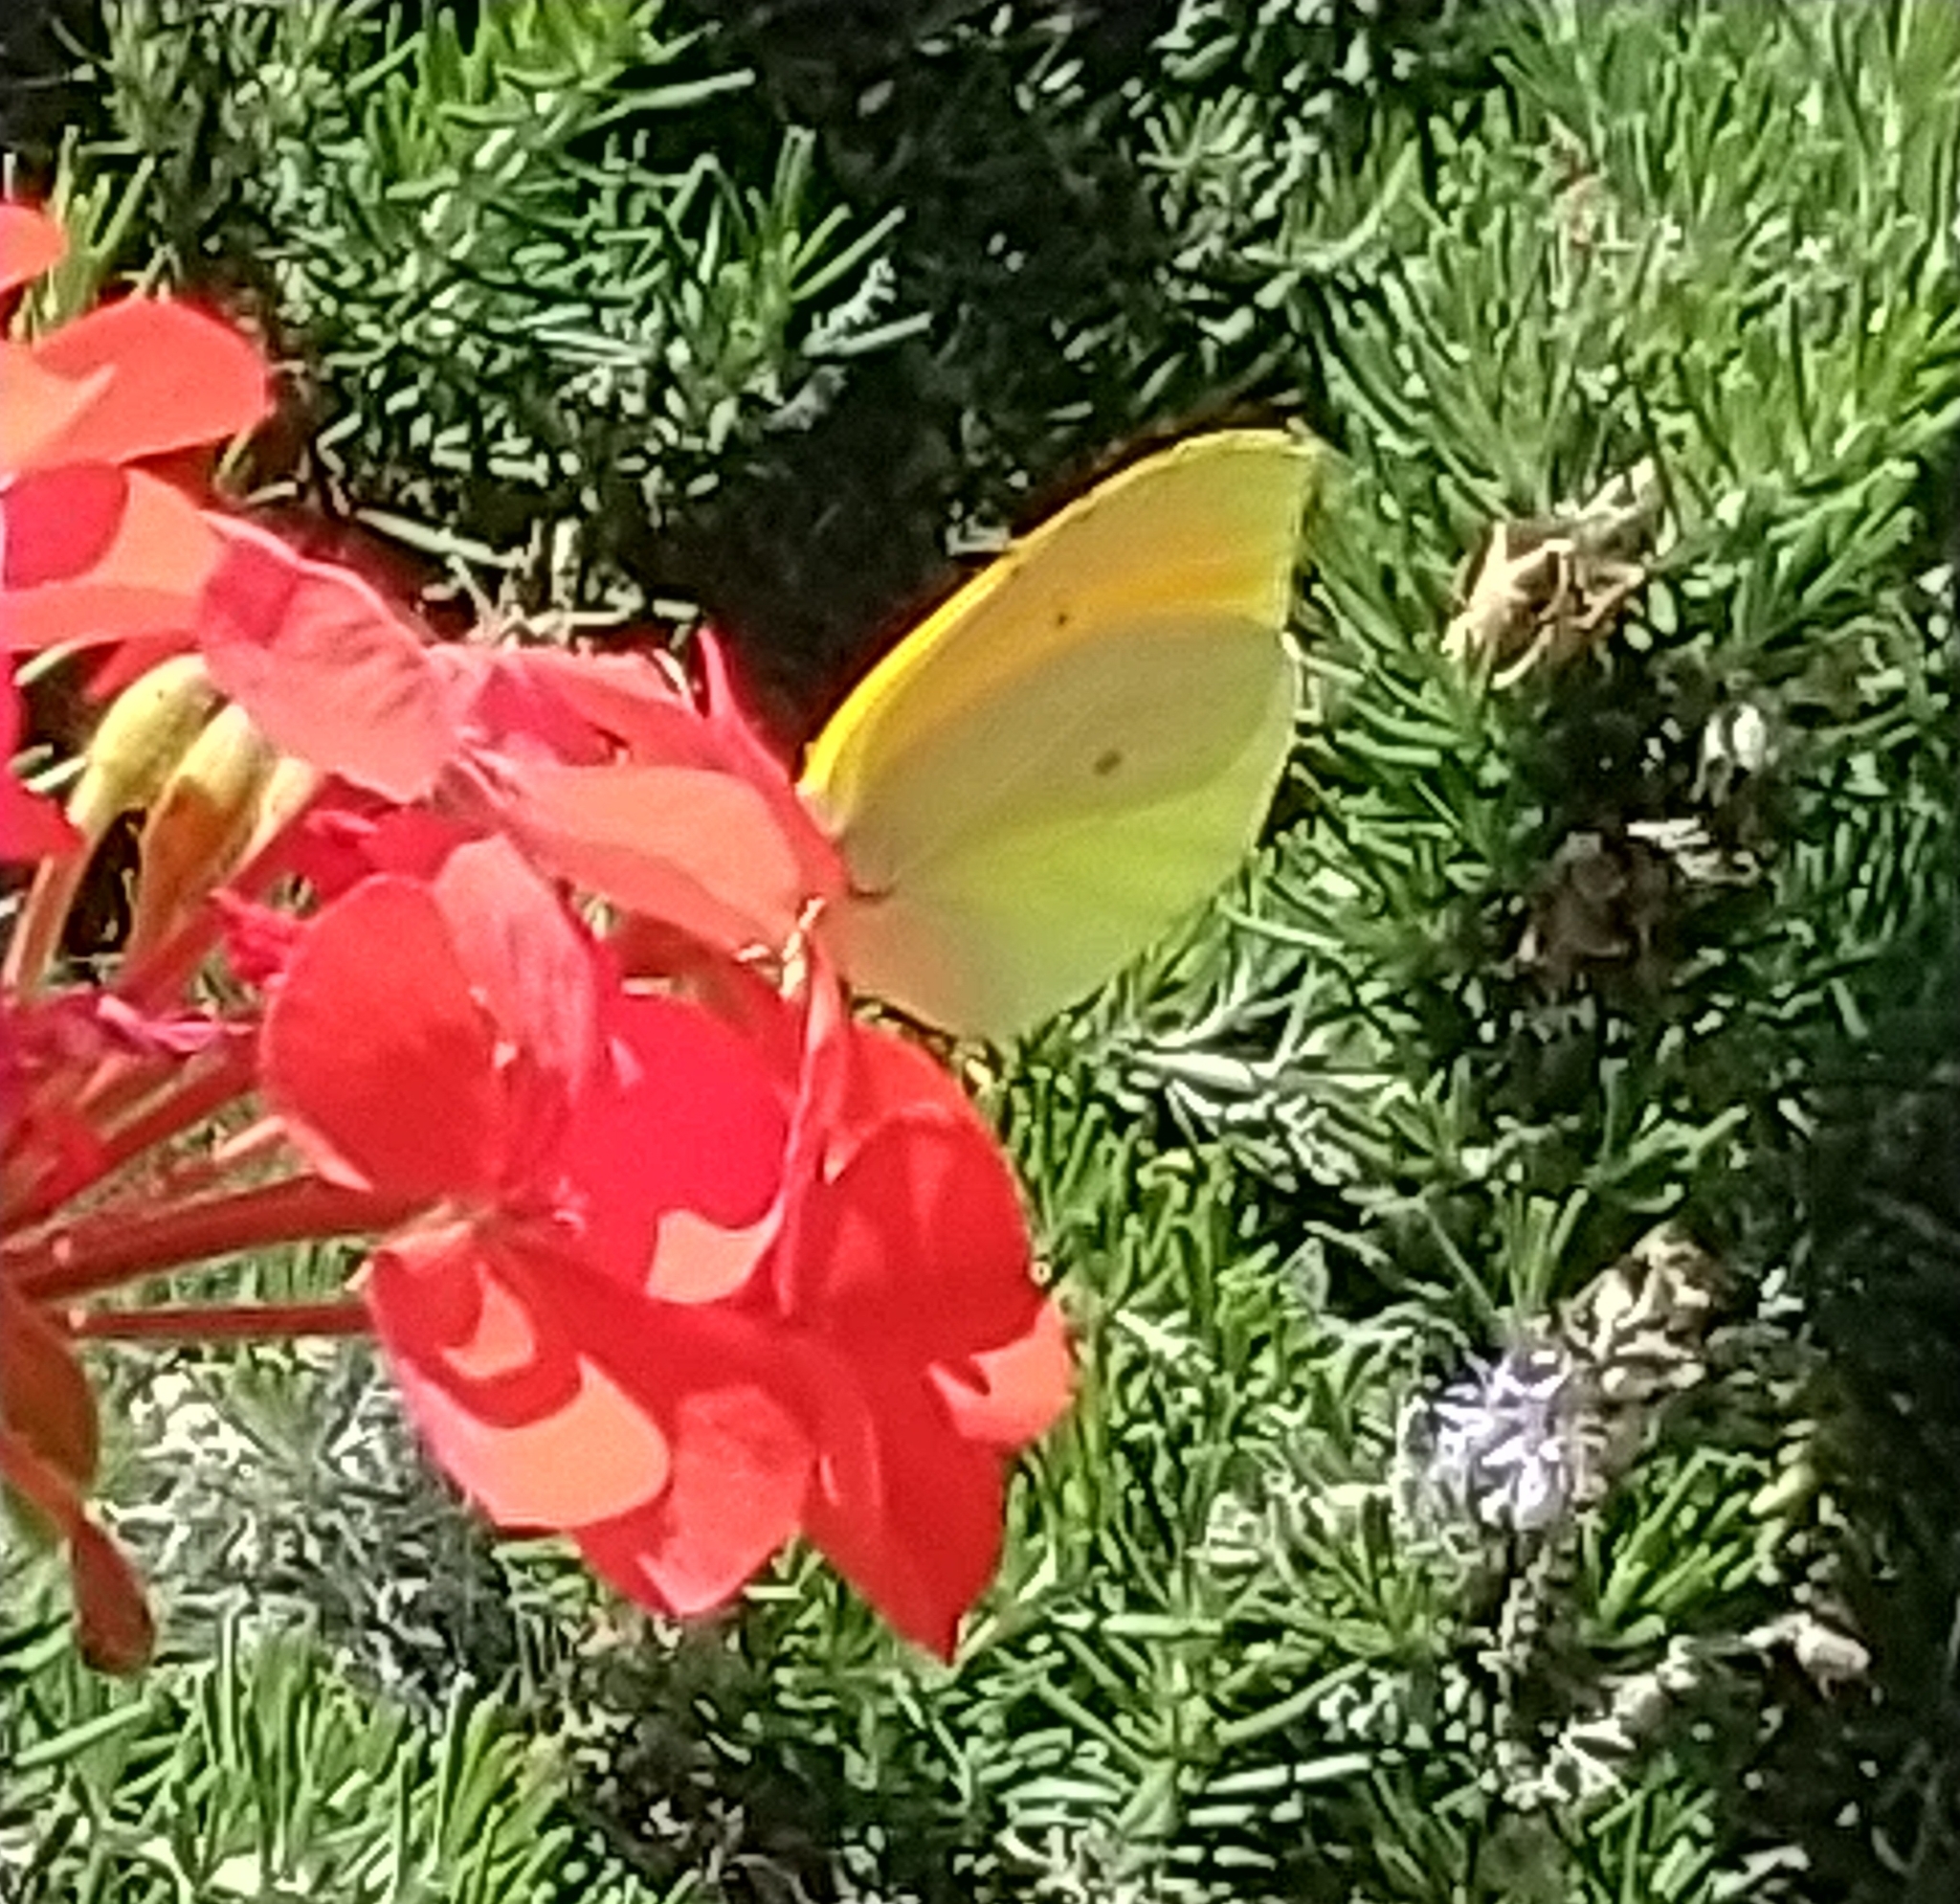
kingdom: Animalia
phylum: Arthropoda
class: Insecta
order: Lepidoptera
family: Pieridae
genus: Gonepteryx
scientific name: Gonepteryx cleopatra
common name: Cleopatra
